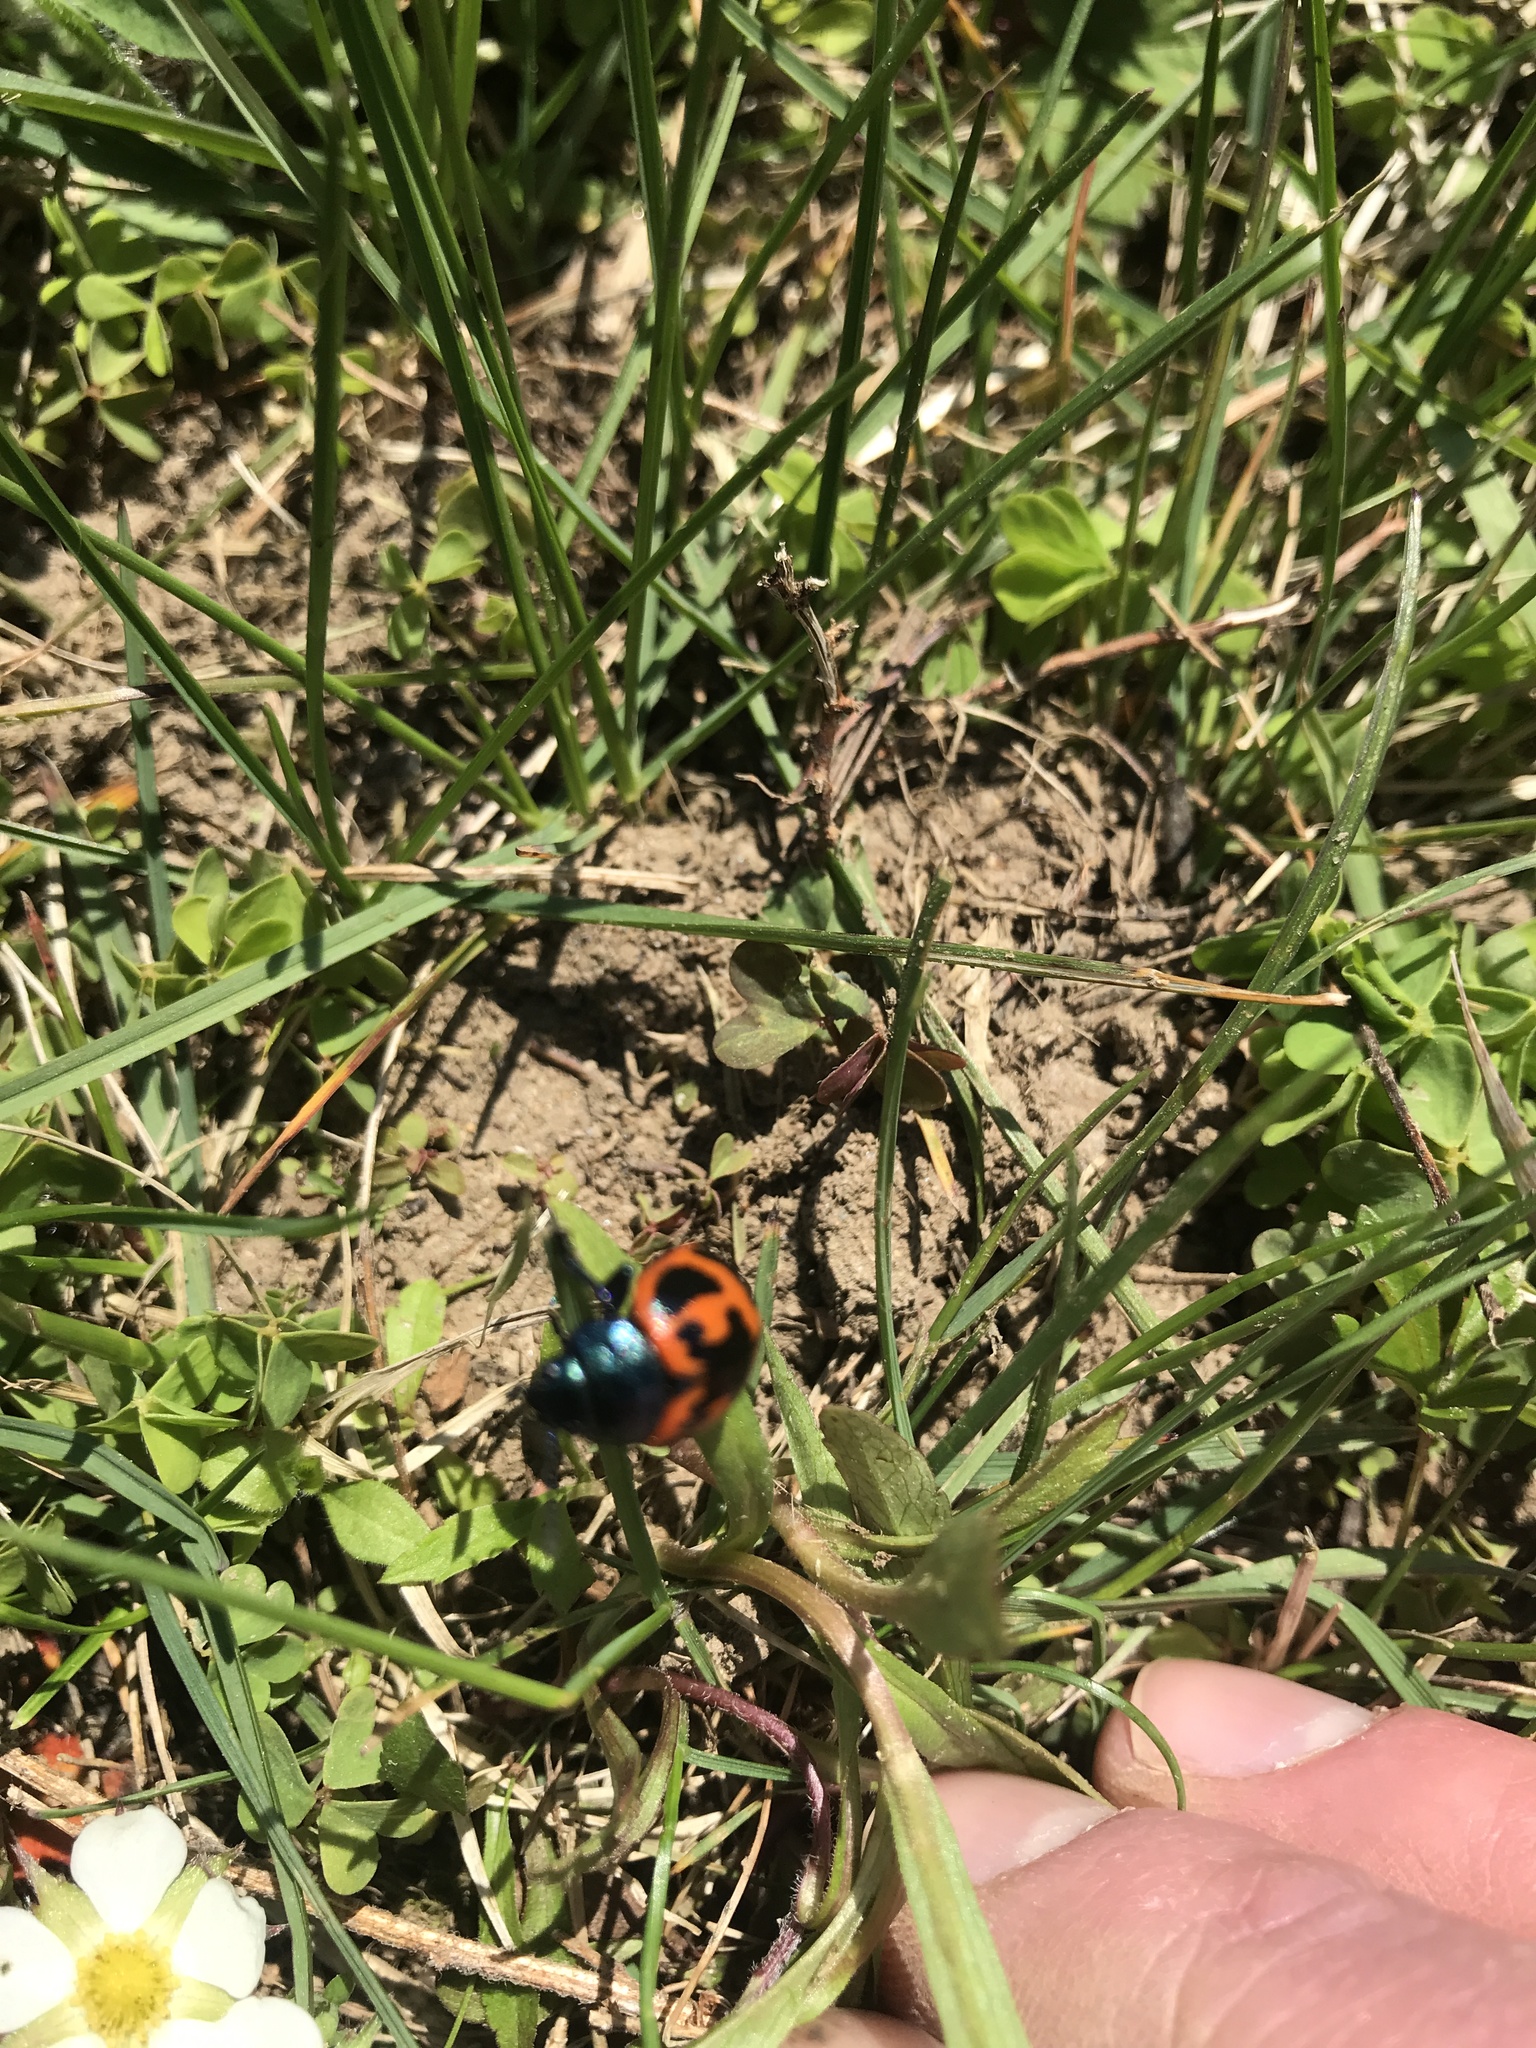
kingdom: Animalia
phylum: Arthropoda
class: Insecta
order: Coleoptera
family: Chrysomelidae
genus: Labidomera
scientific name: Labidomera clivicollis
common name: Swamp milkweed leaf beetle
